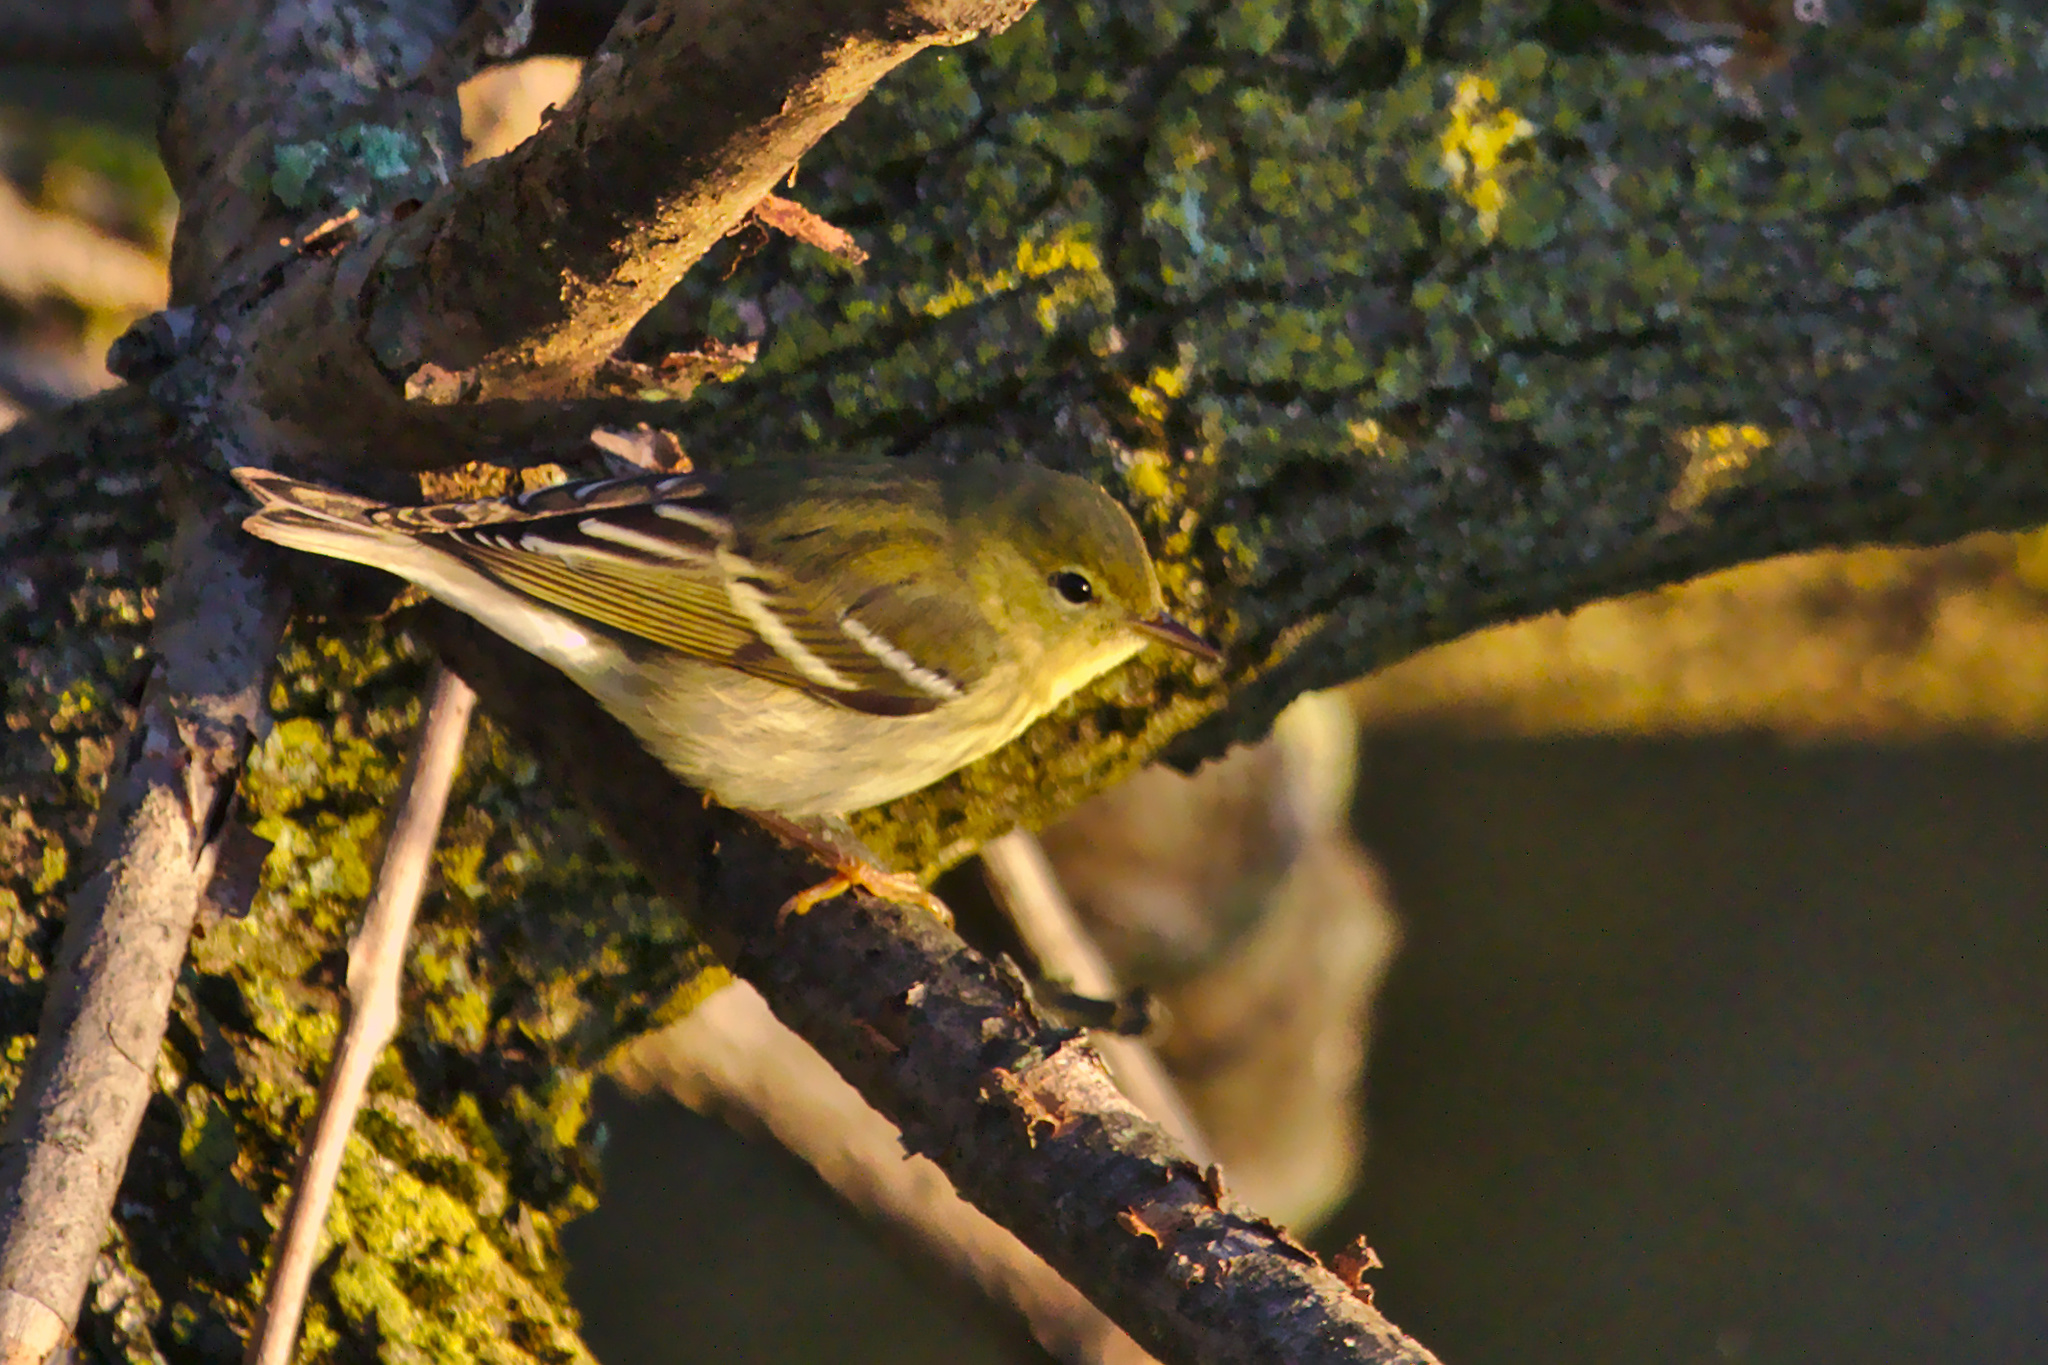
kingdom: Animalia
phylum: Chordata
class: Aves
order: Passeriformes
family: Parulidae
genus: Setophaga
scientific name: Setophaga striata
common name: Blackpoll warbler
